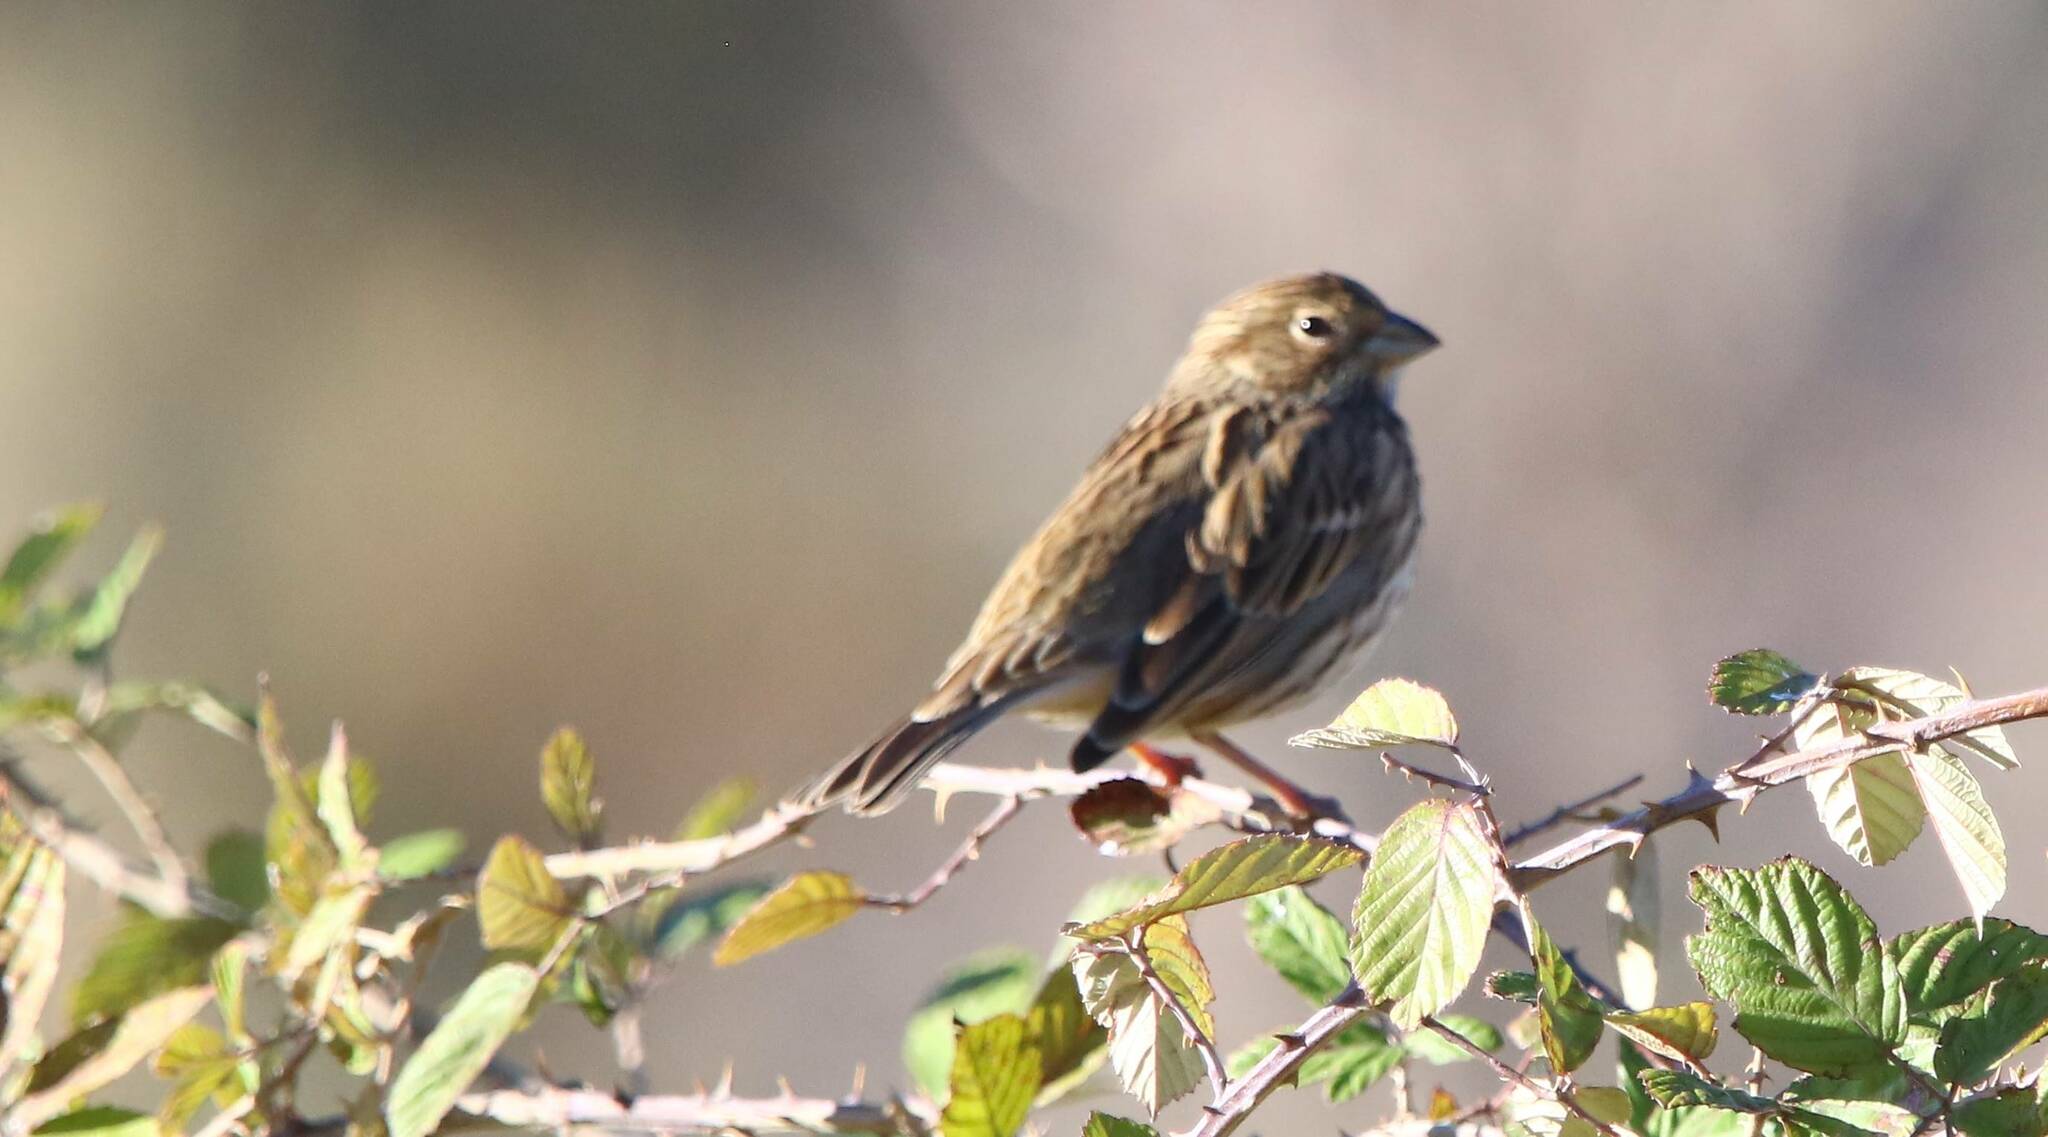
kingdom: Animalia
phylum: Chordata
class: Aves
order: Passeriformes
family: Emberizidae
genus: Emberiza
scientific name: Emberiza calandra
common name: Corn bunting
